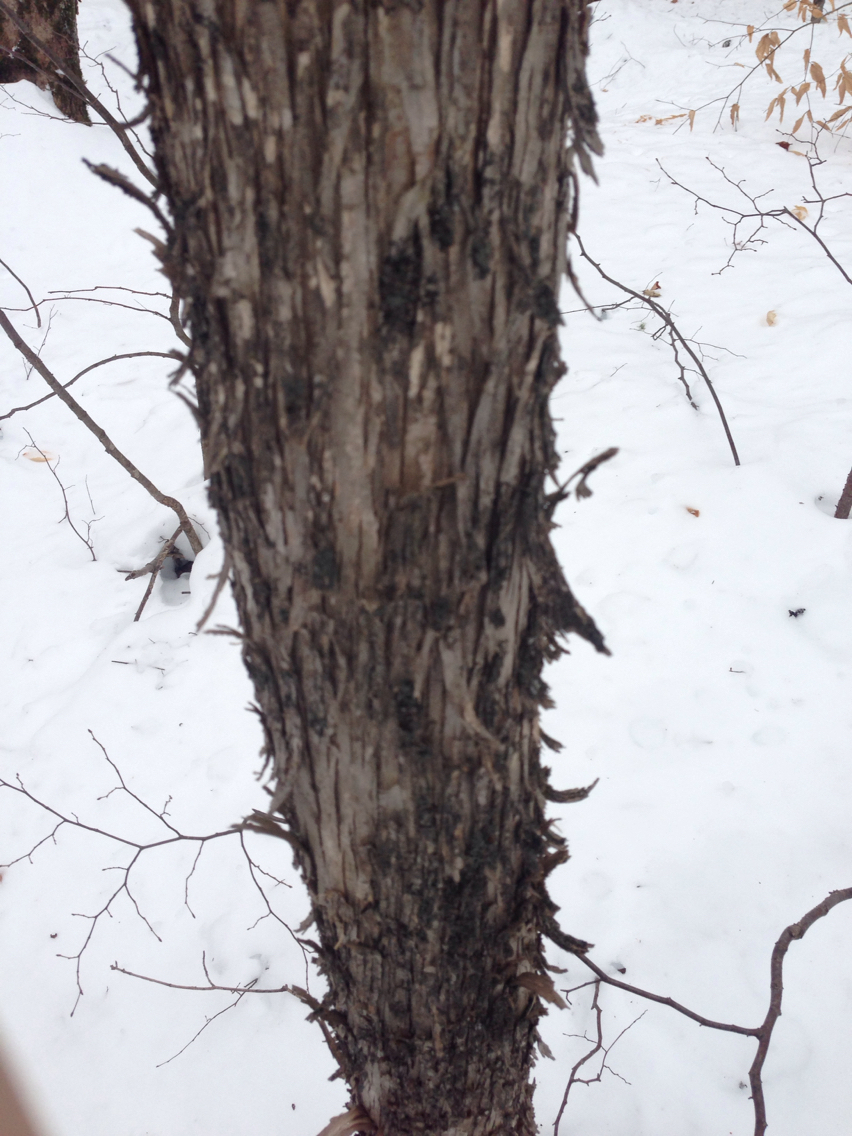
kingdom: Plantae
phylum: Tracheophyta
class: Magnoliopsida
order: Fagales
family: Betulaceae
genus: Ostrya
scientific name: Ostrya virginiana
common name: Ironwood
